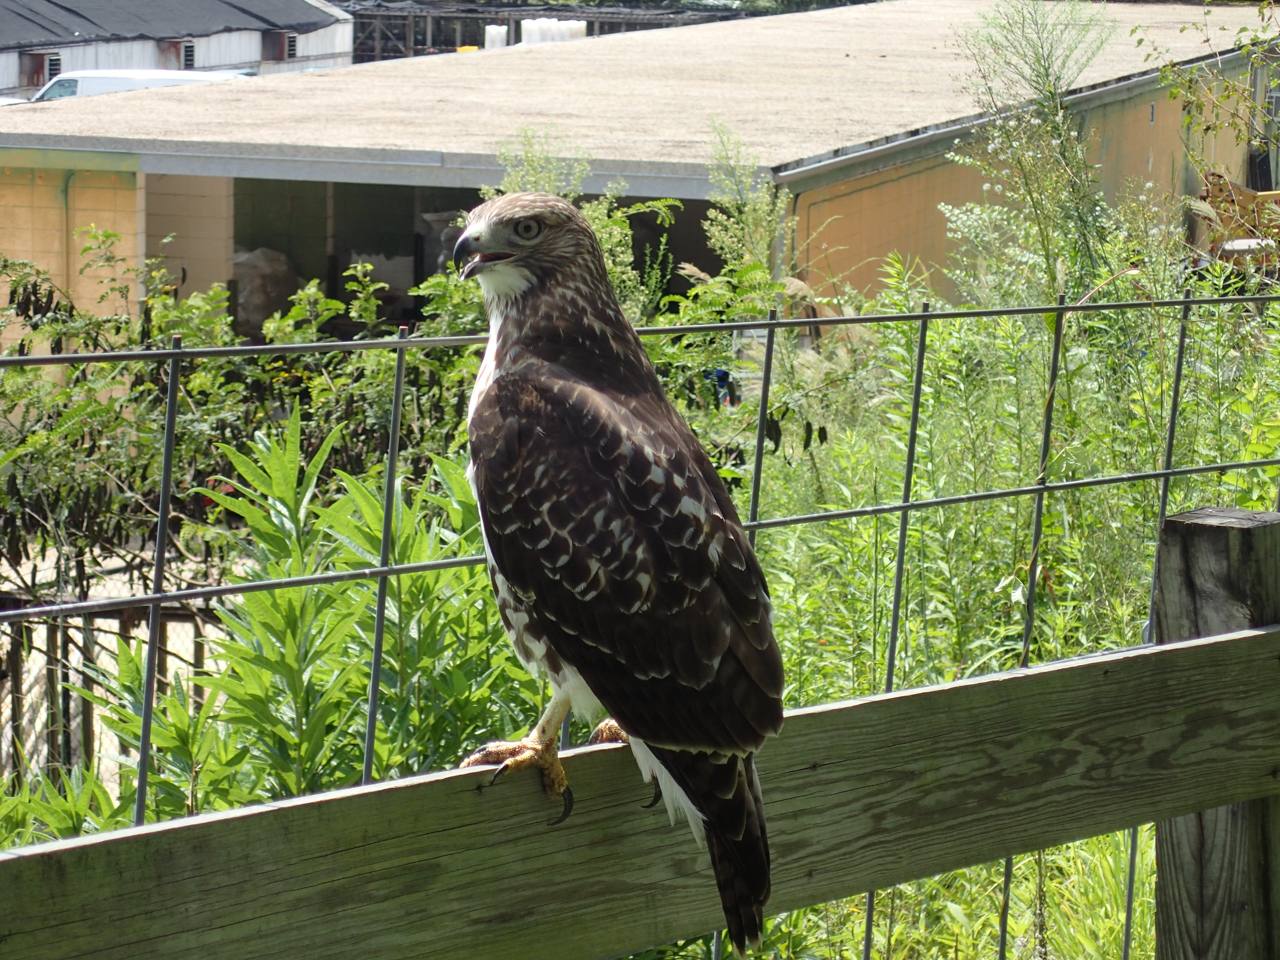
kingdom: Animalia
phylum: Chordata
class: Aves
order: Accipitriformes
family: Accipitridae
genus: Buteo
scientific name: Buteo jamaicensis
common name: Red-tailed hawk
